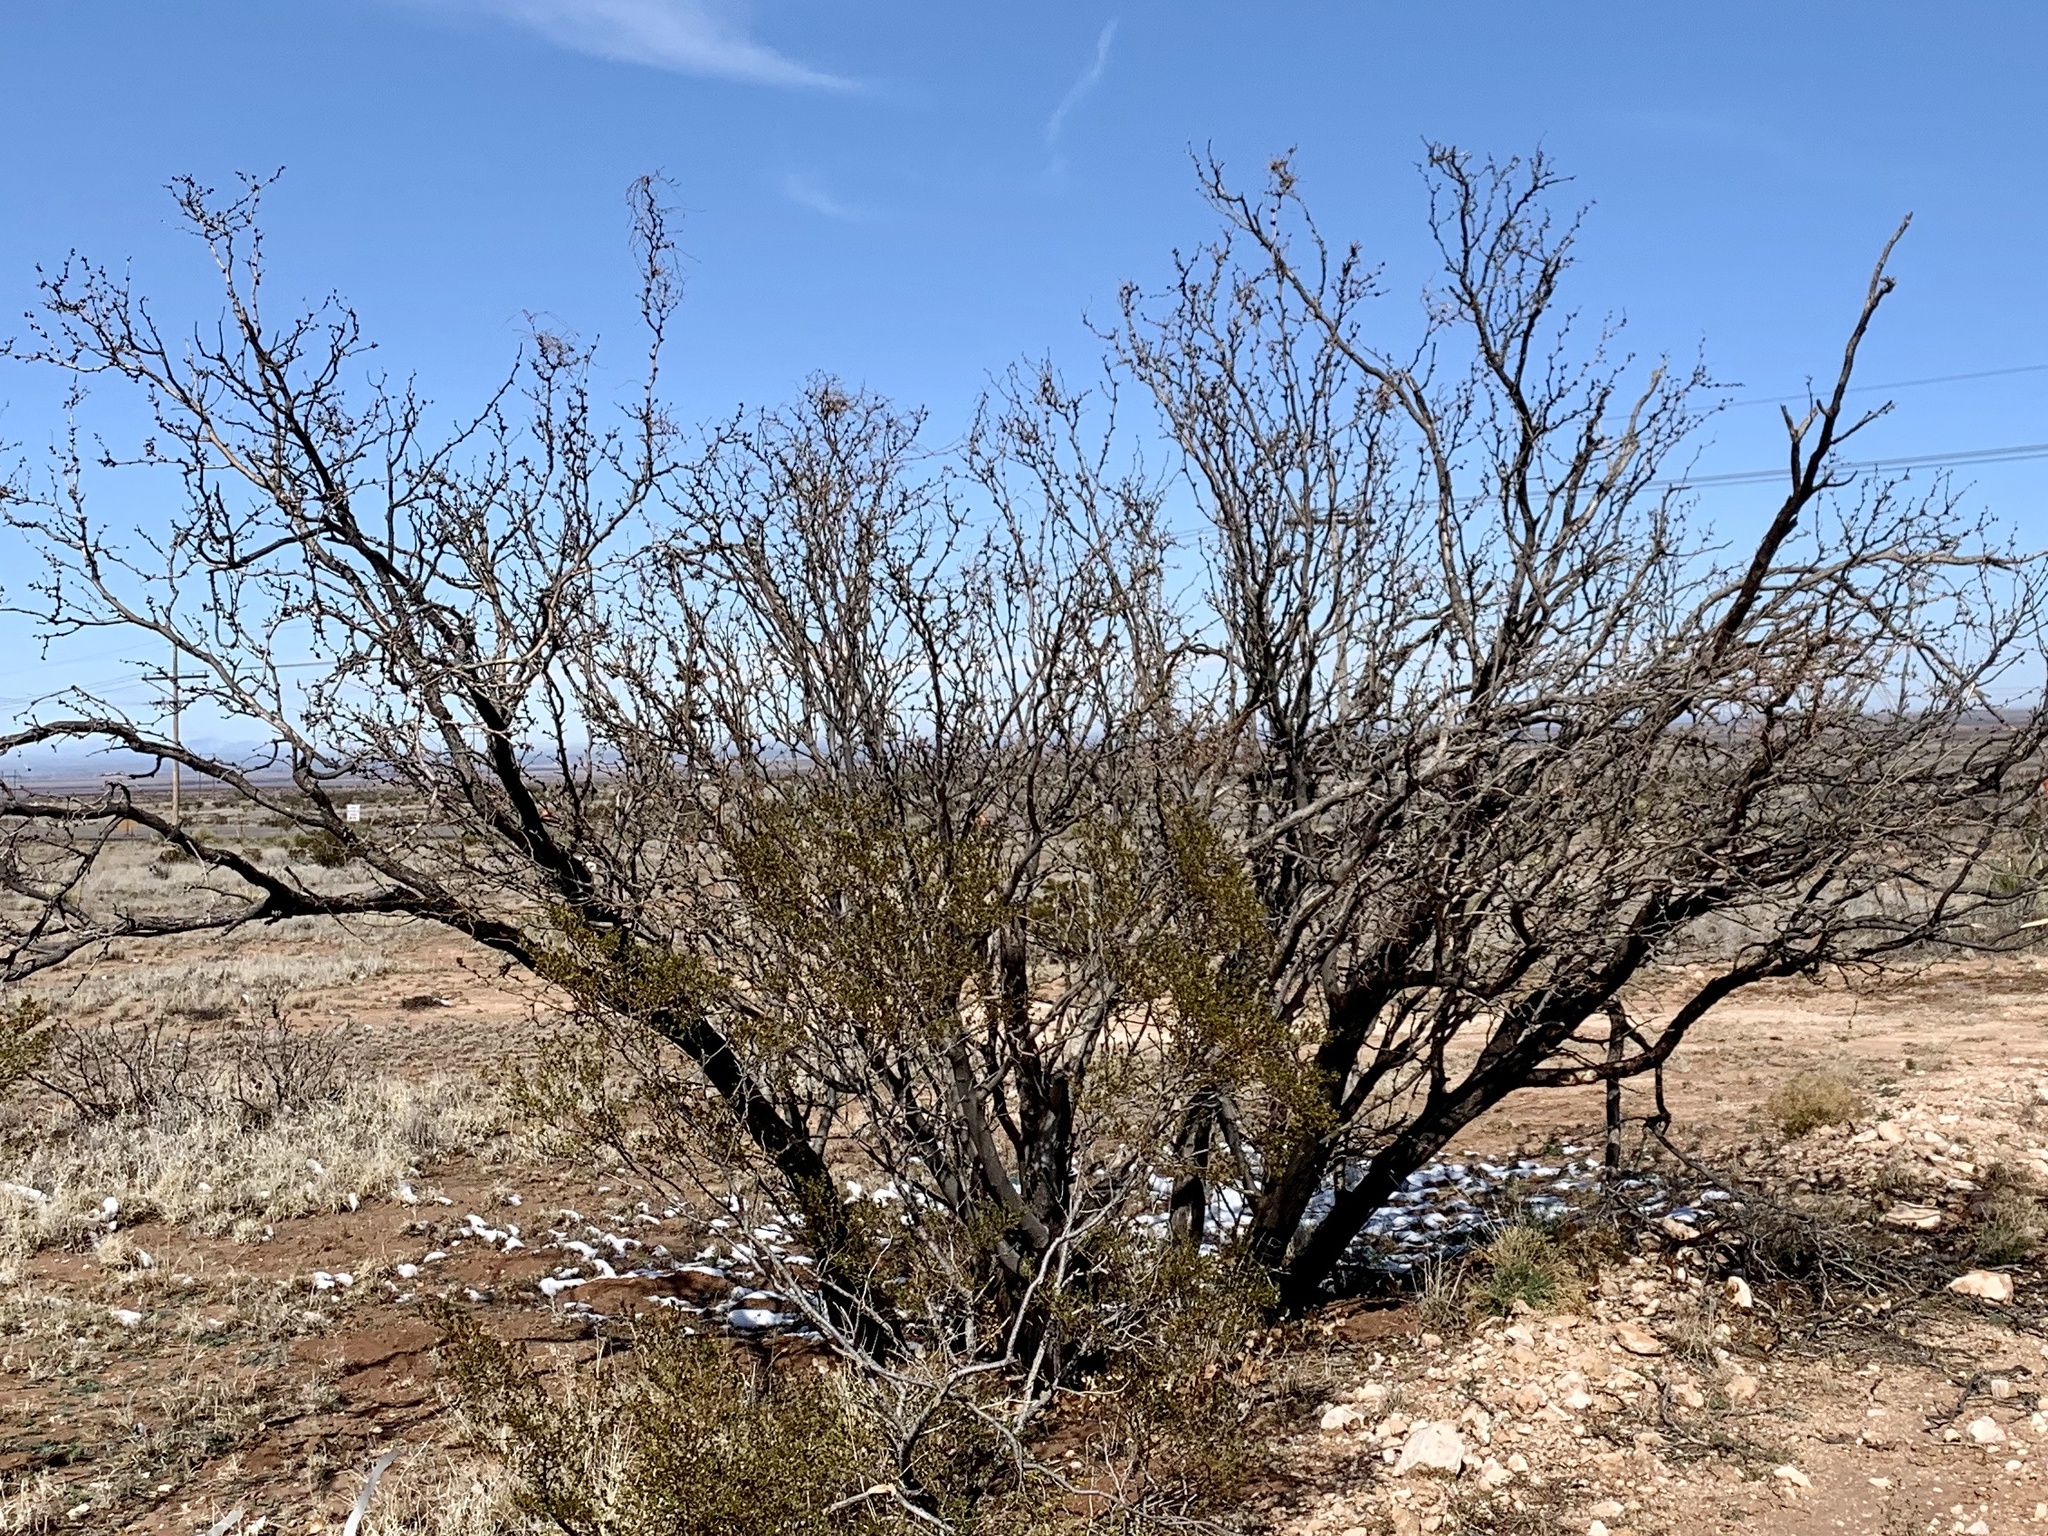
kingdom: Plantae
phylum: Tracheophyta
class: Magnoliopsida
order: Fabales
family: Fabaceae
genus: Prosopis
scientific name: Prosopis glandulosa
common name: Honey mesquite
